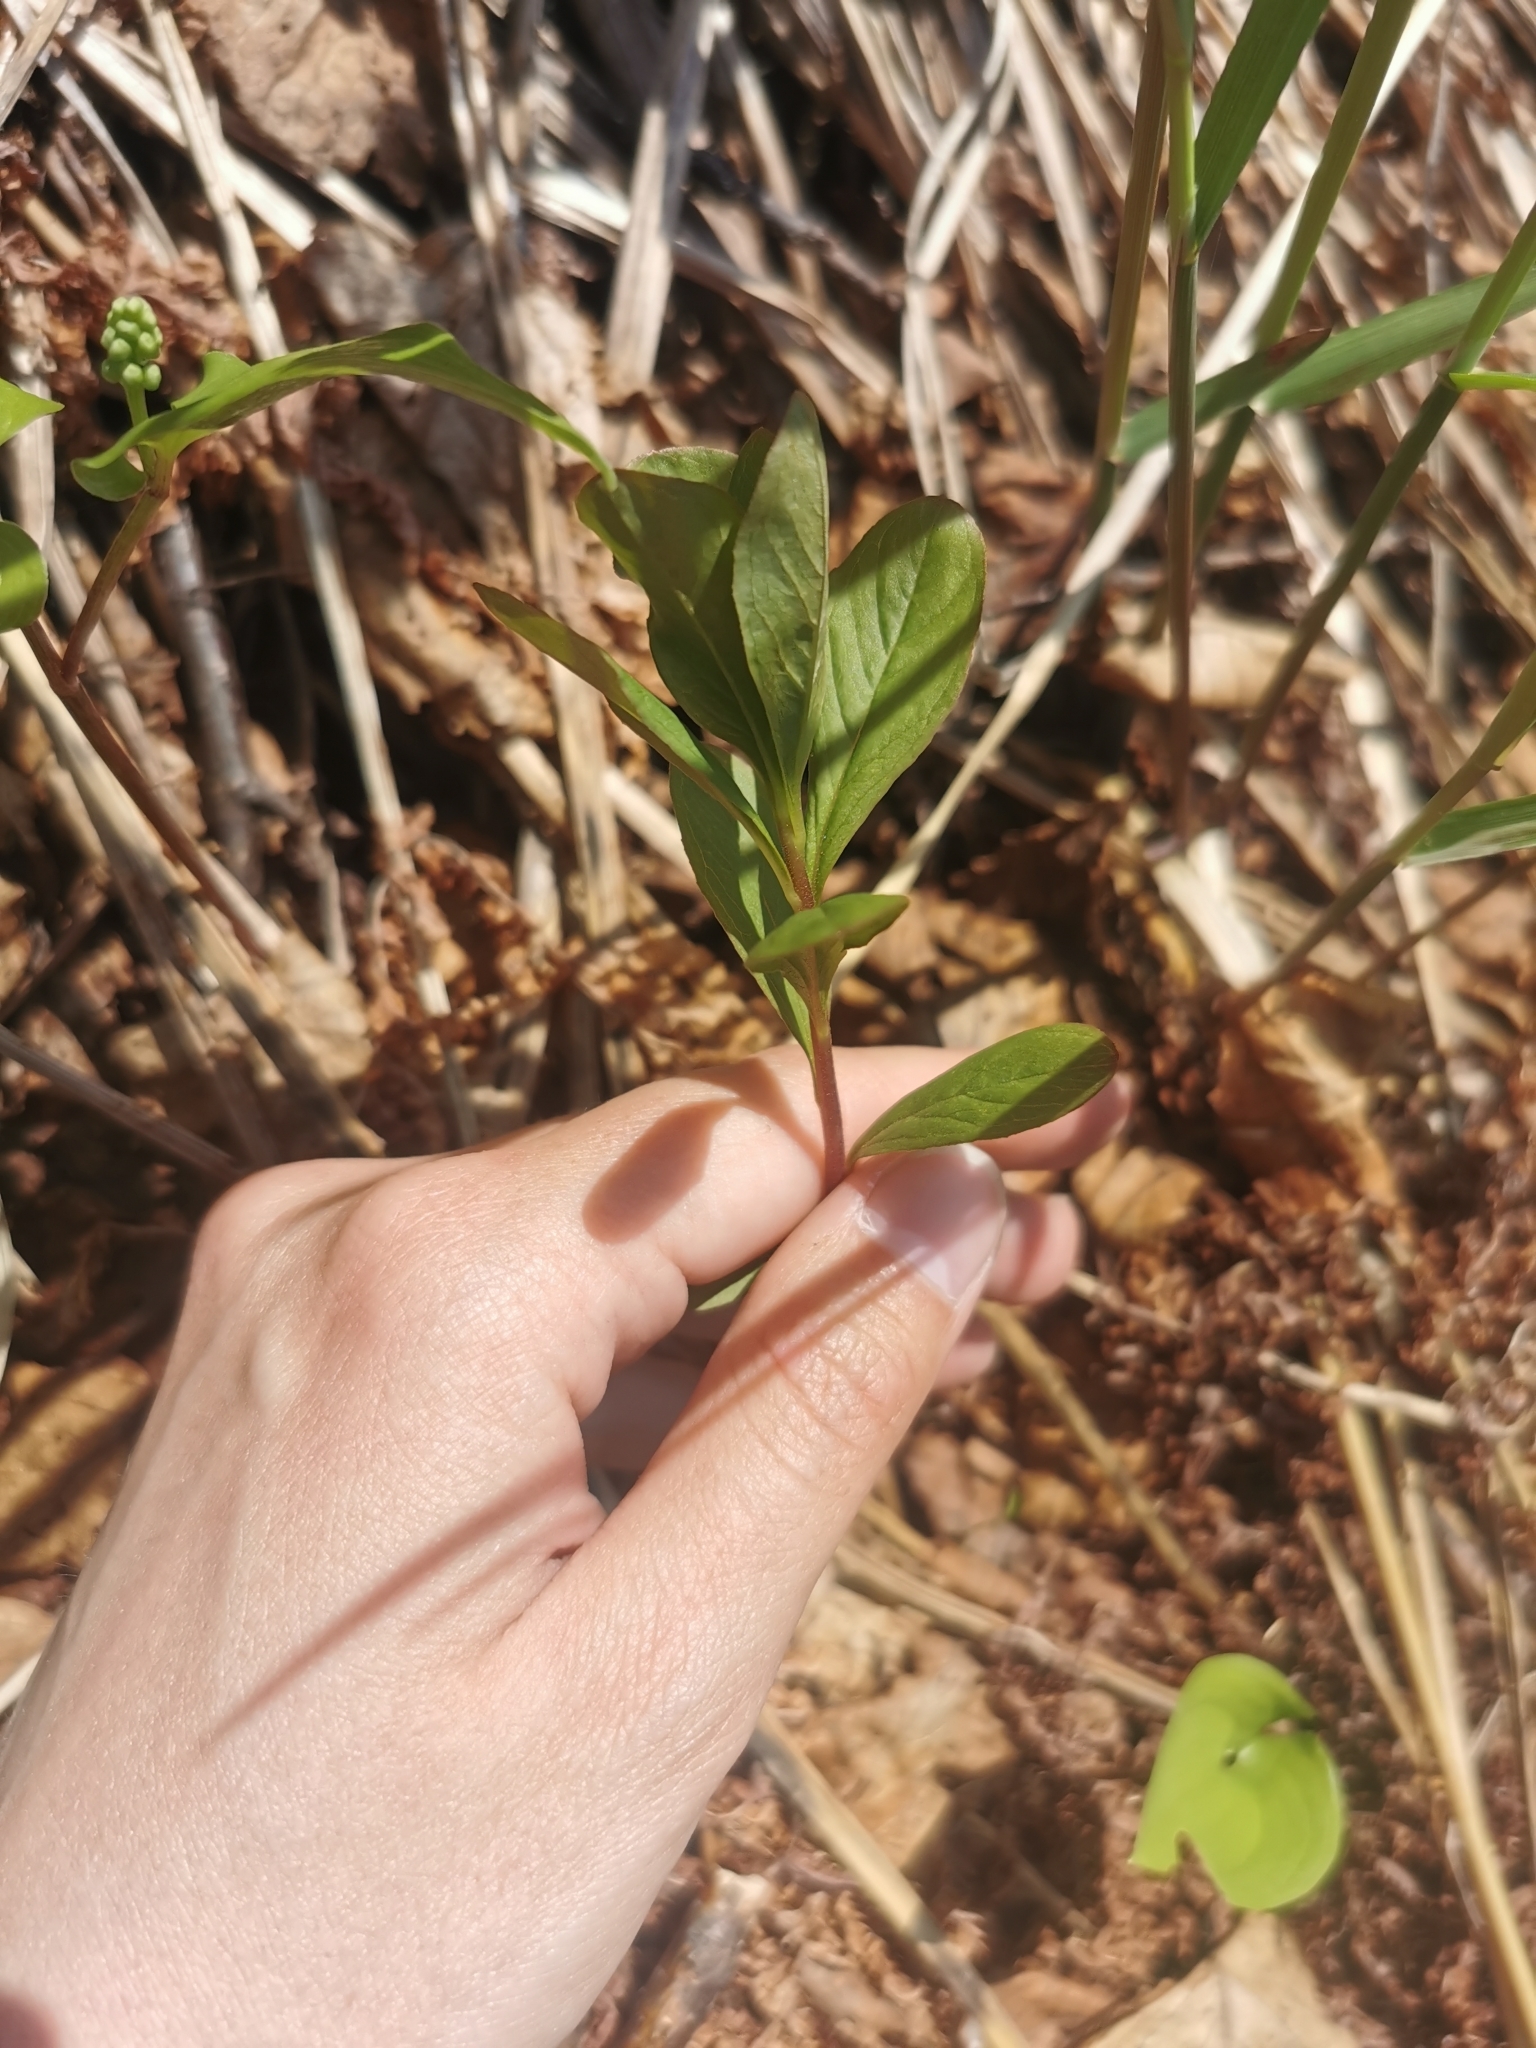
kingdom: Plantae
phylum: Tracheophyta
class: Magnoliopsida
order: Ericales
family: Primulaceae
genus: Lysimachia
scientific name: Lysimachia europaea
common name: Arctic starflower
